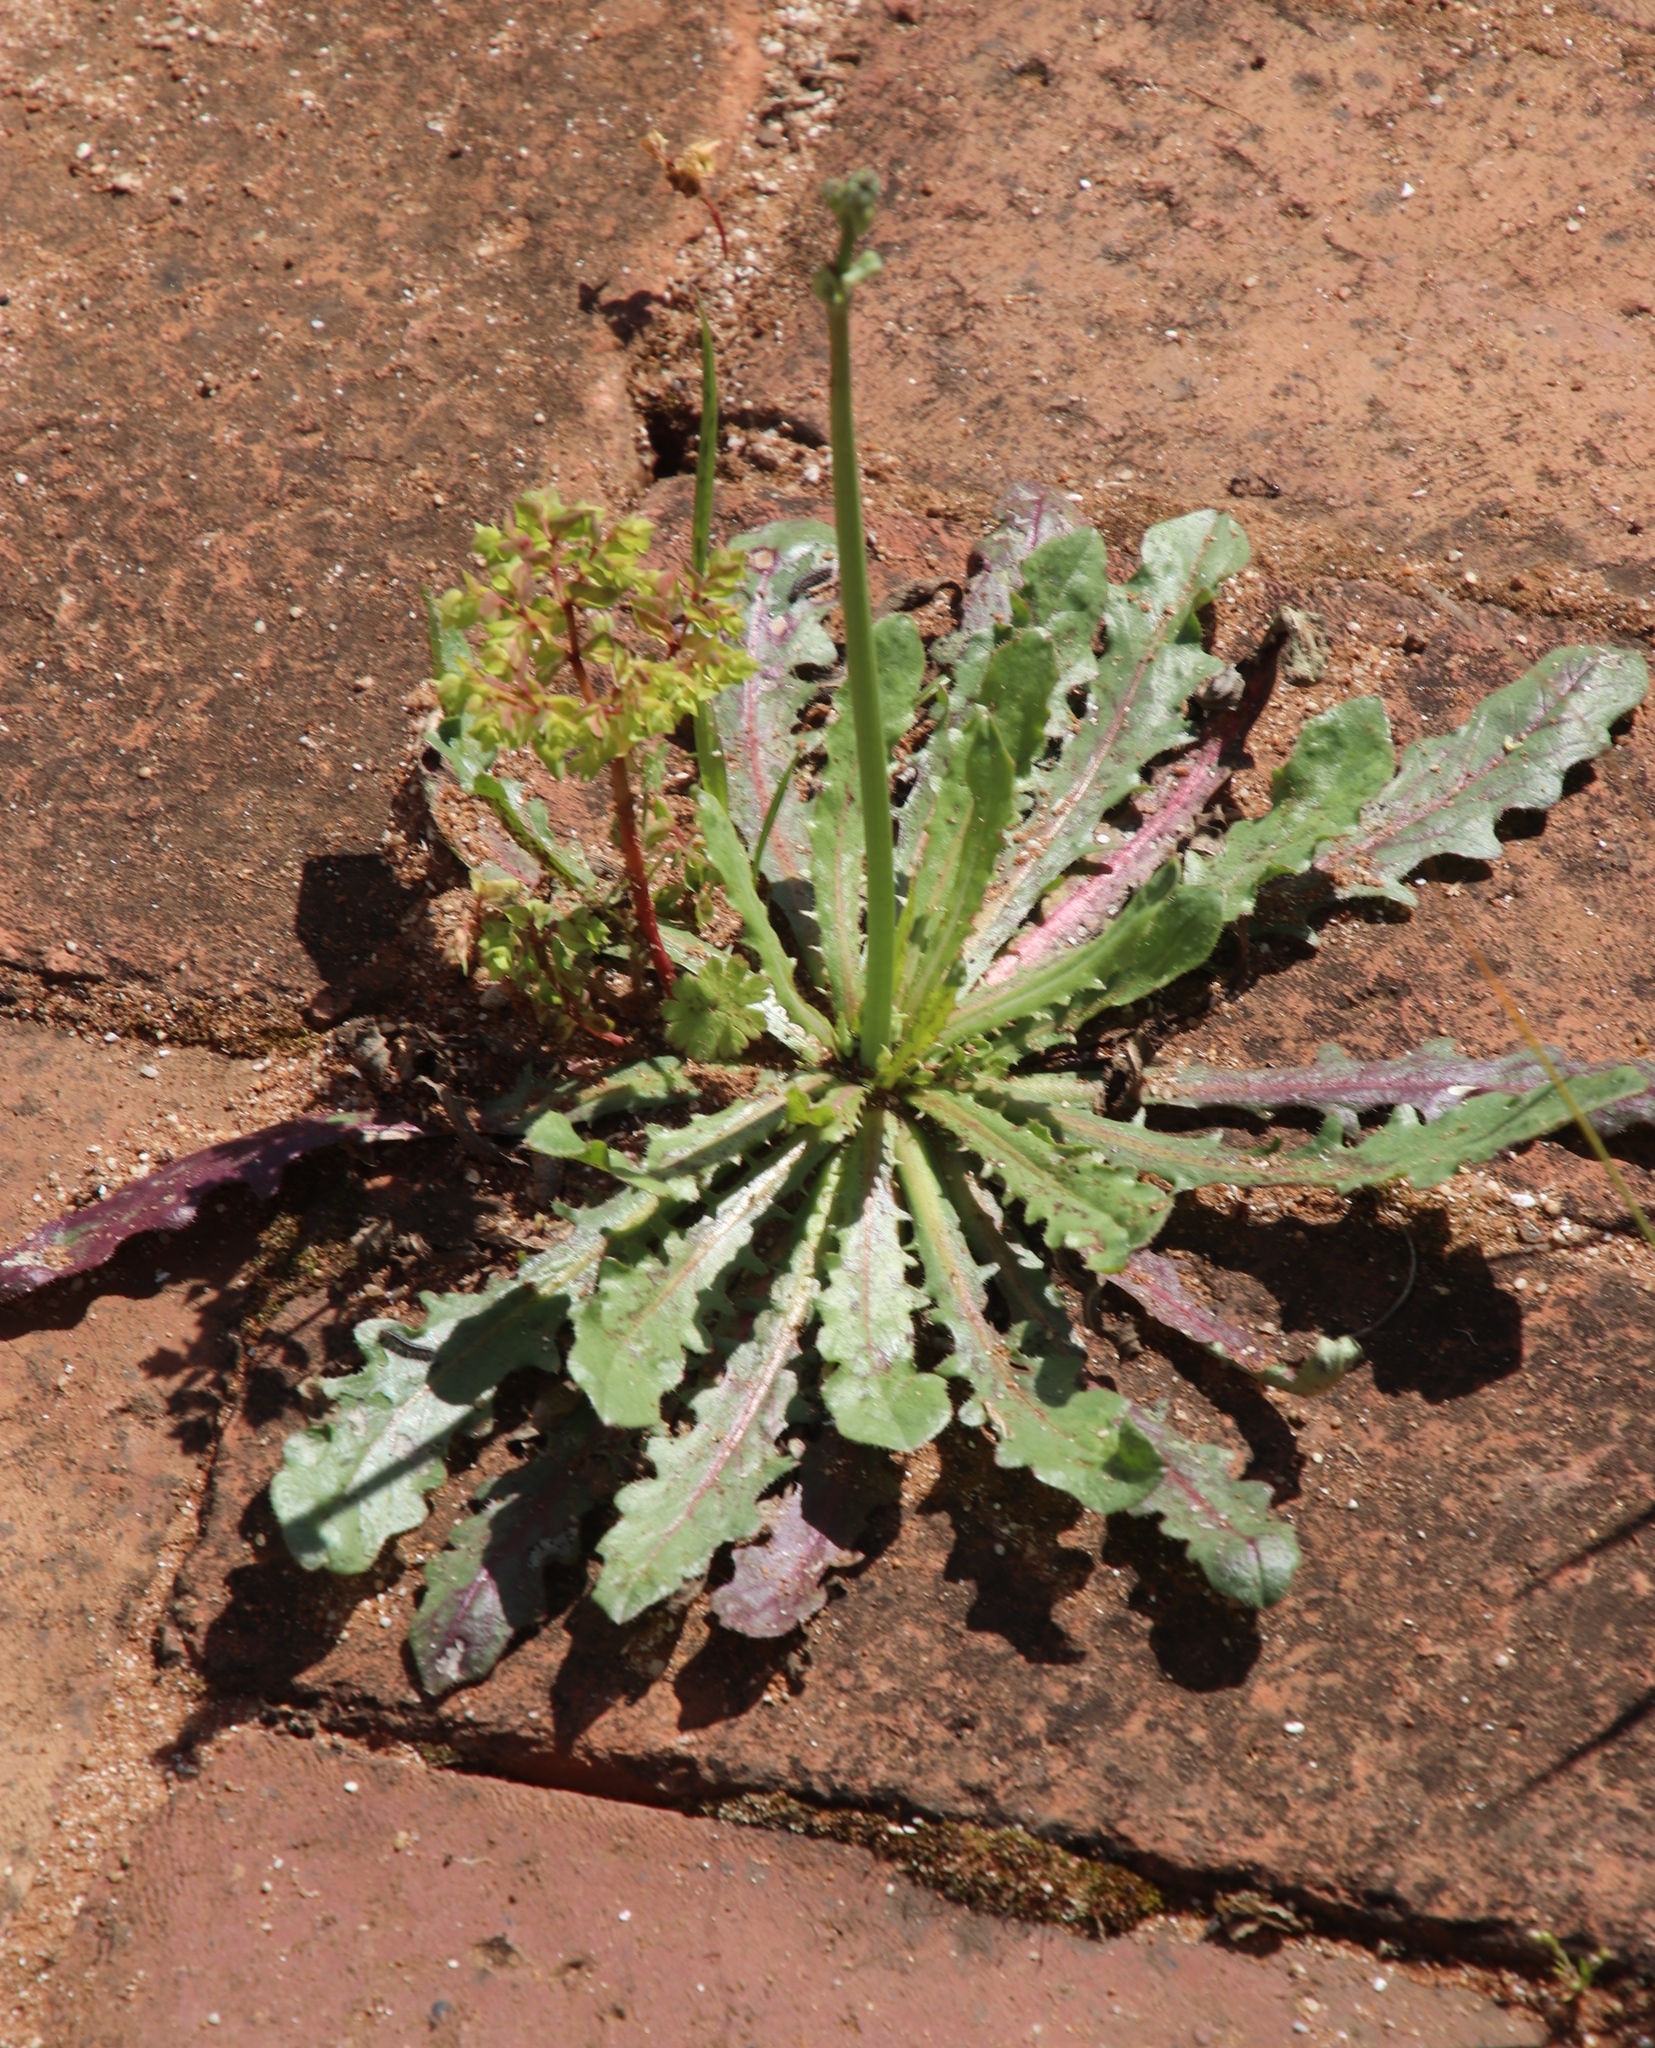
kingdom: Plantae
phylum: Tracheophyta
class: Magnoliopsida
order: Asterales
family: Asteraceae
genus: Hypochaeris
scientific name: Hypochaeris glabra
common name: Smooth catsear
